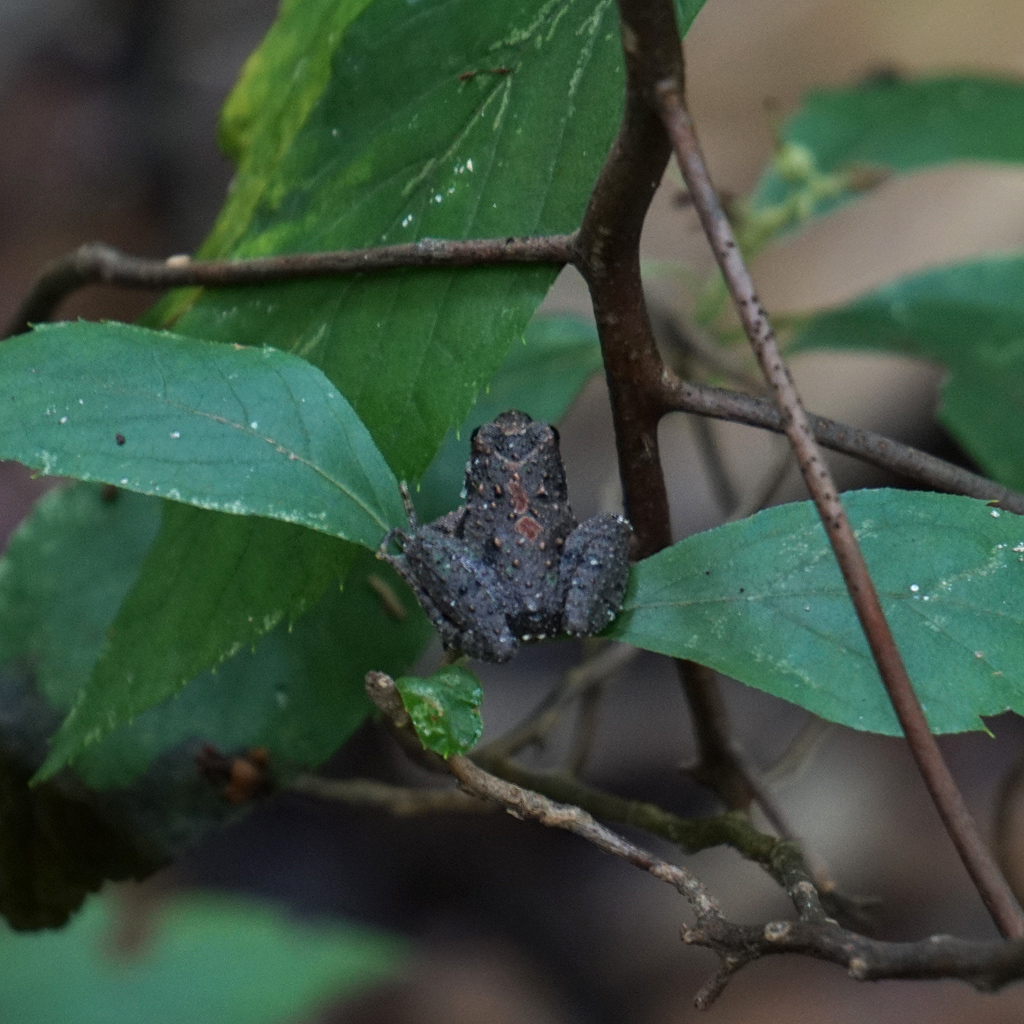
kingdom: Animalia
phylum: Chordata
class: Amphibia
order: Anura
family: Hylidae
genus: Acris
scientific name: Acris crepitans
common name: Northern cricket frog
